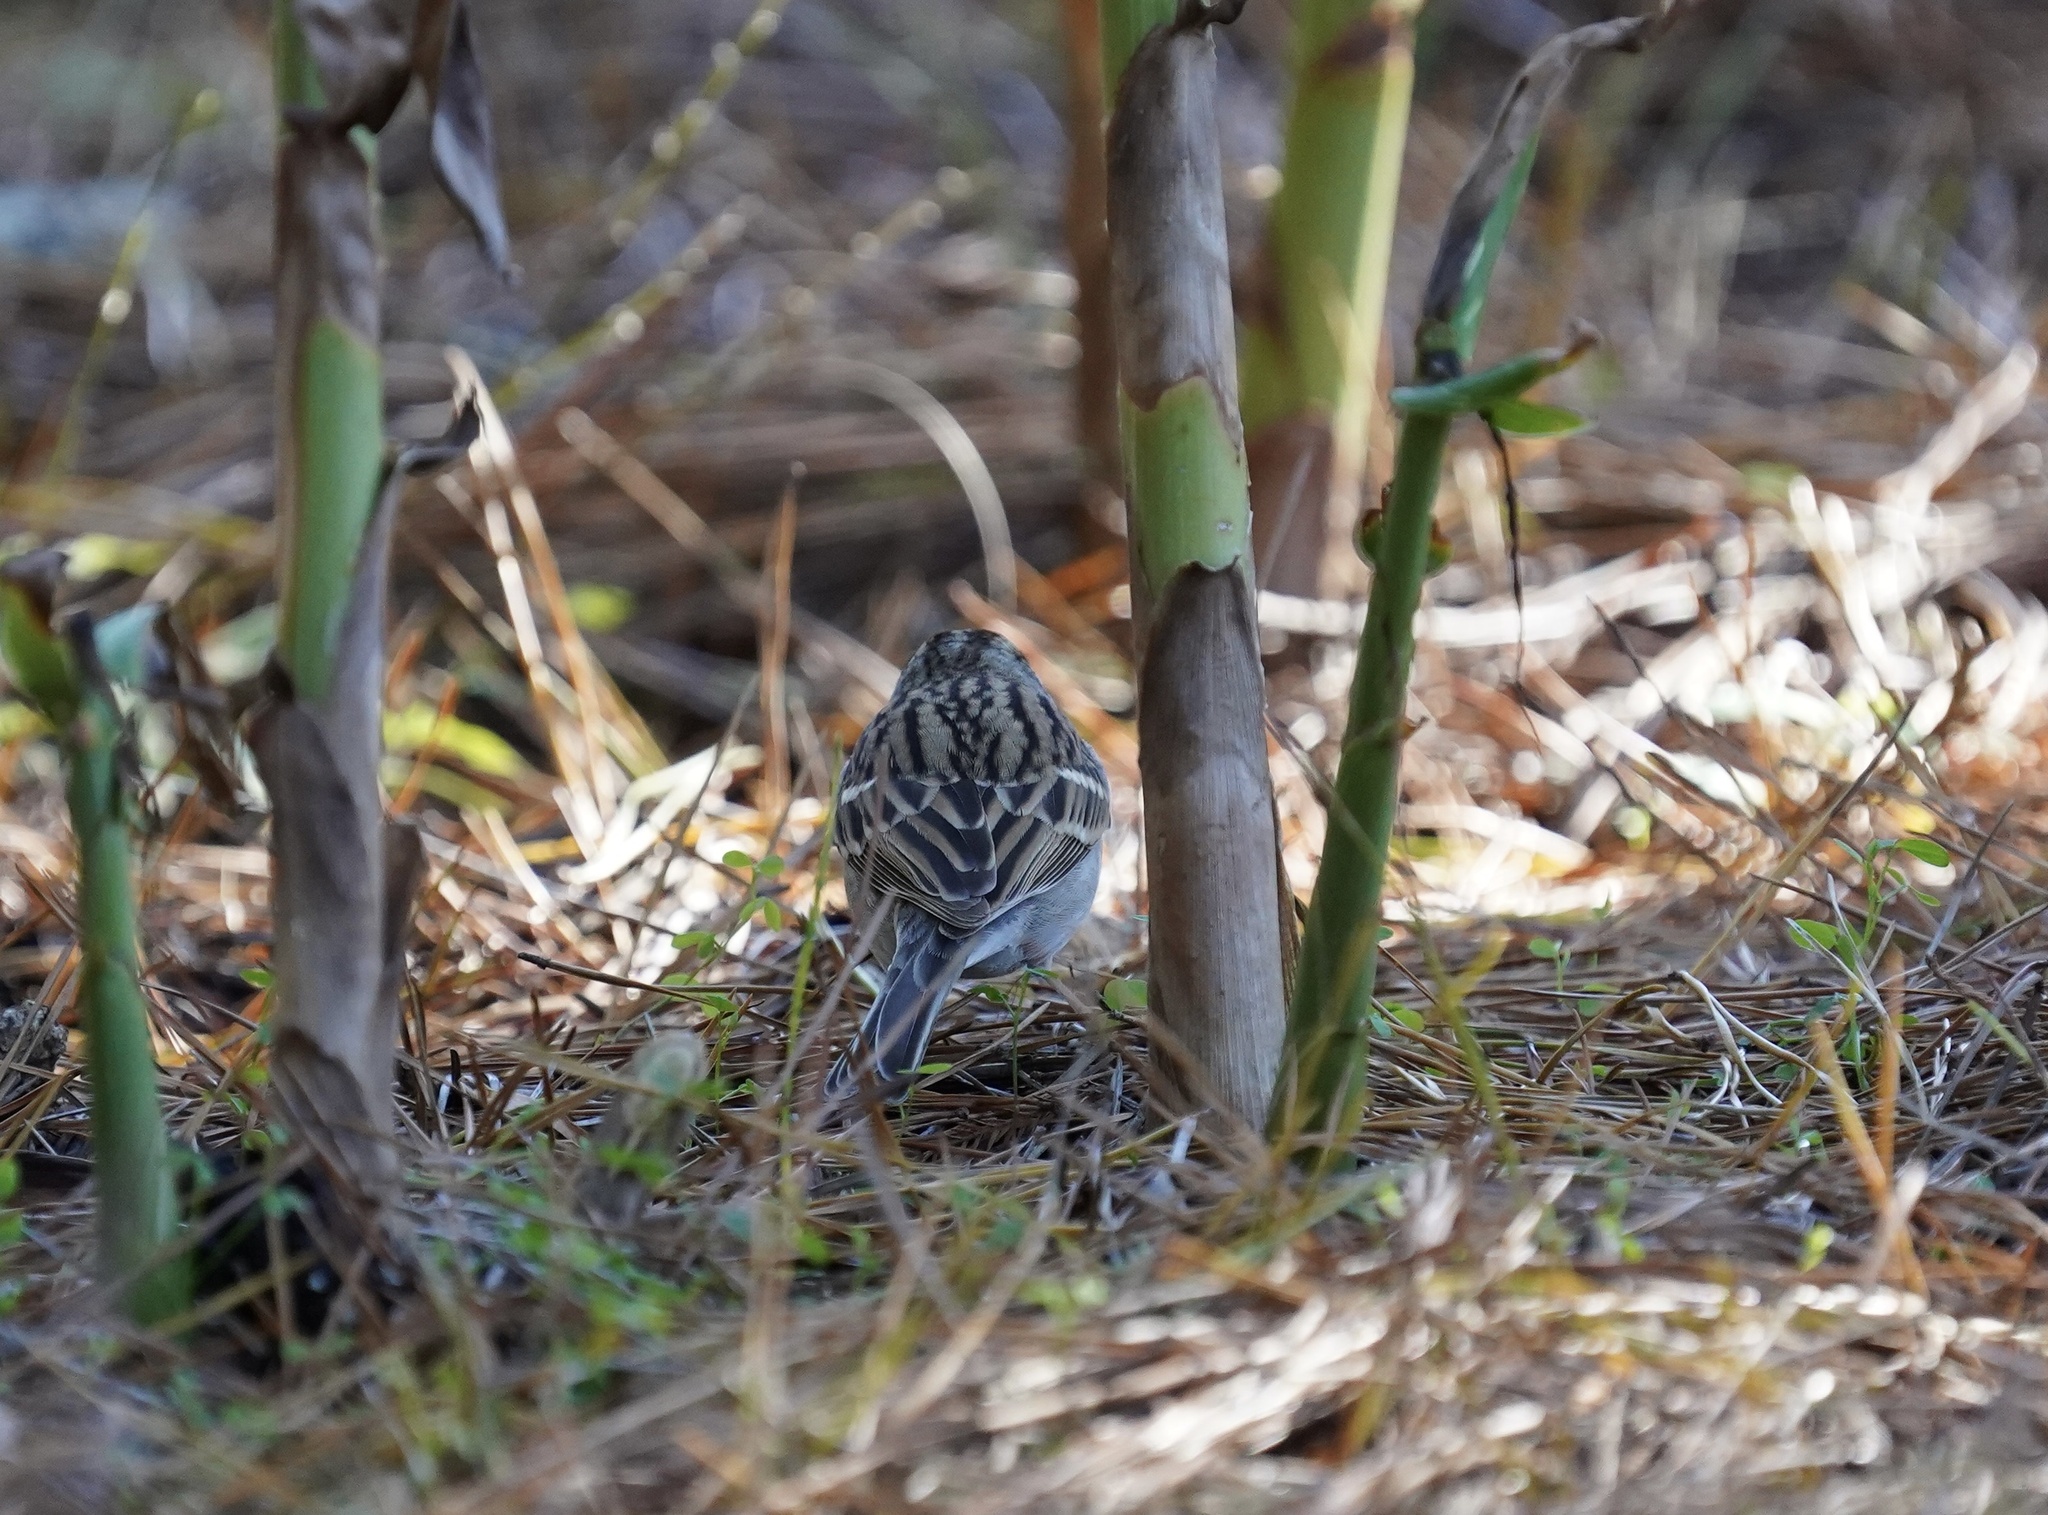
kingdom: Animalia
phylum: Chordata
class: Aves
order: Passeriformes
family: Passerellidae
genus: Spizella
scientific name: Spizella passerina
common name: Chipping sparrow
